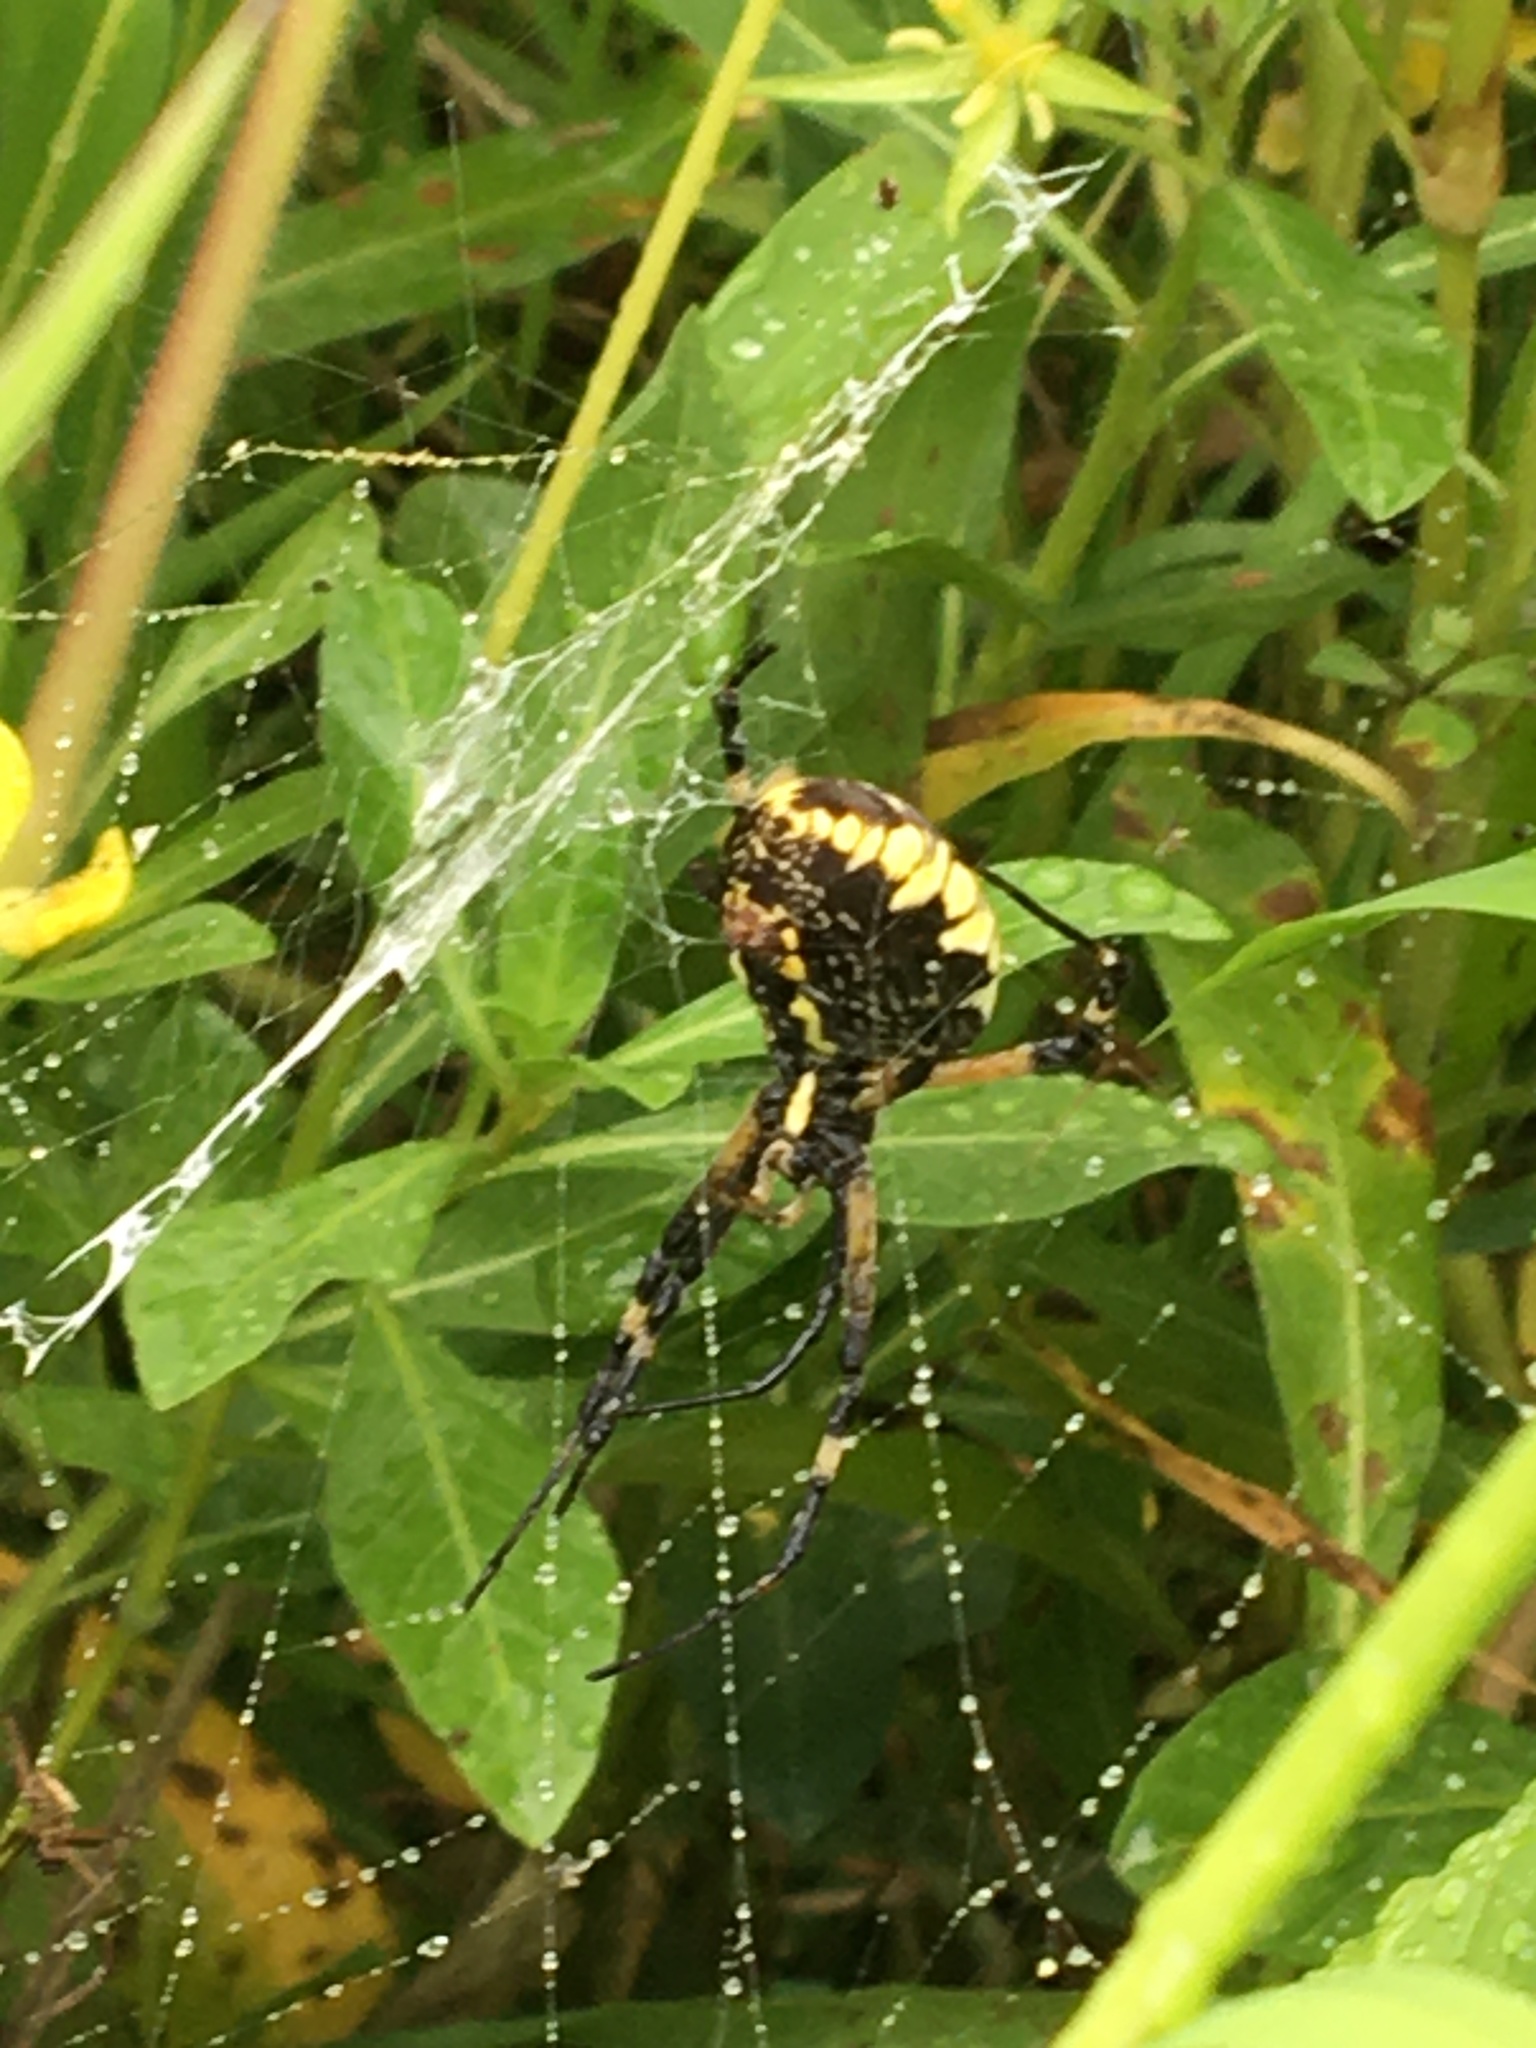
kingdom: Animalia
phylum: Arthropoda
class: Arachnida
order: Araneae
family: Araneidae
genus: Argiope
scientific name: Argiope aurantia
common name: Orb weavers
